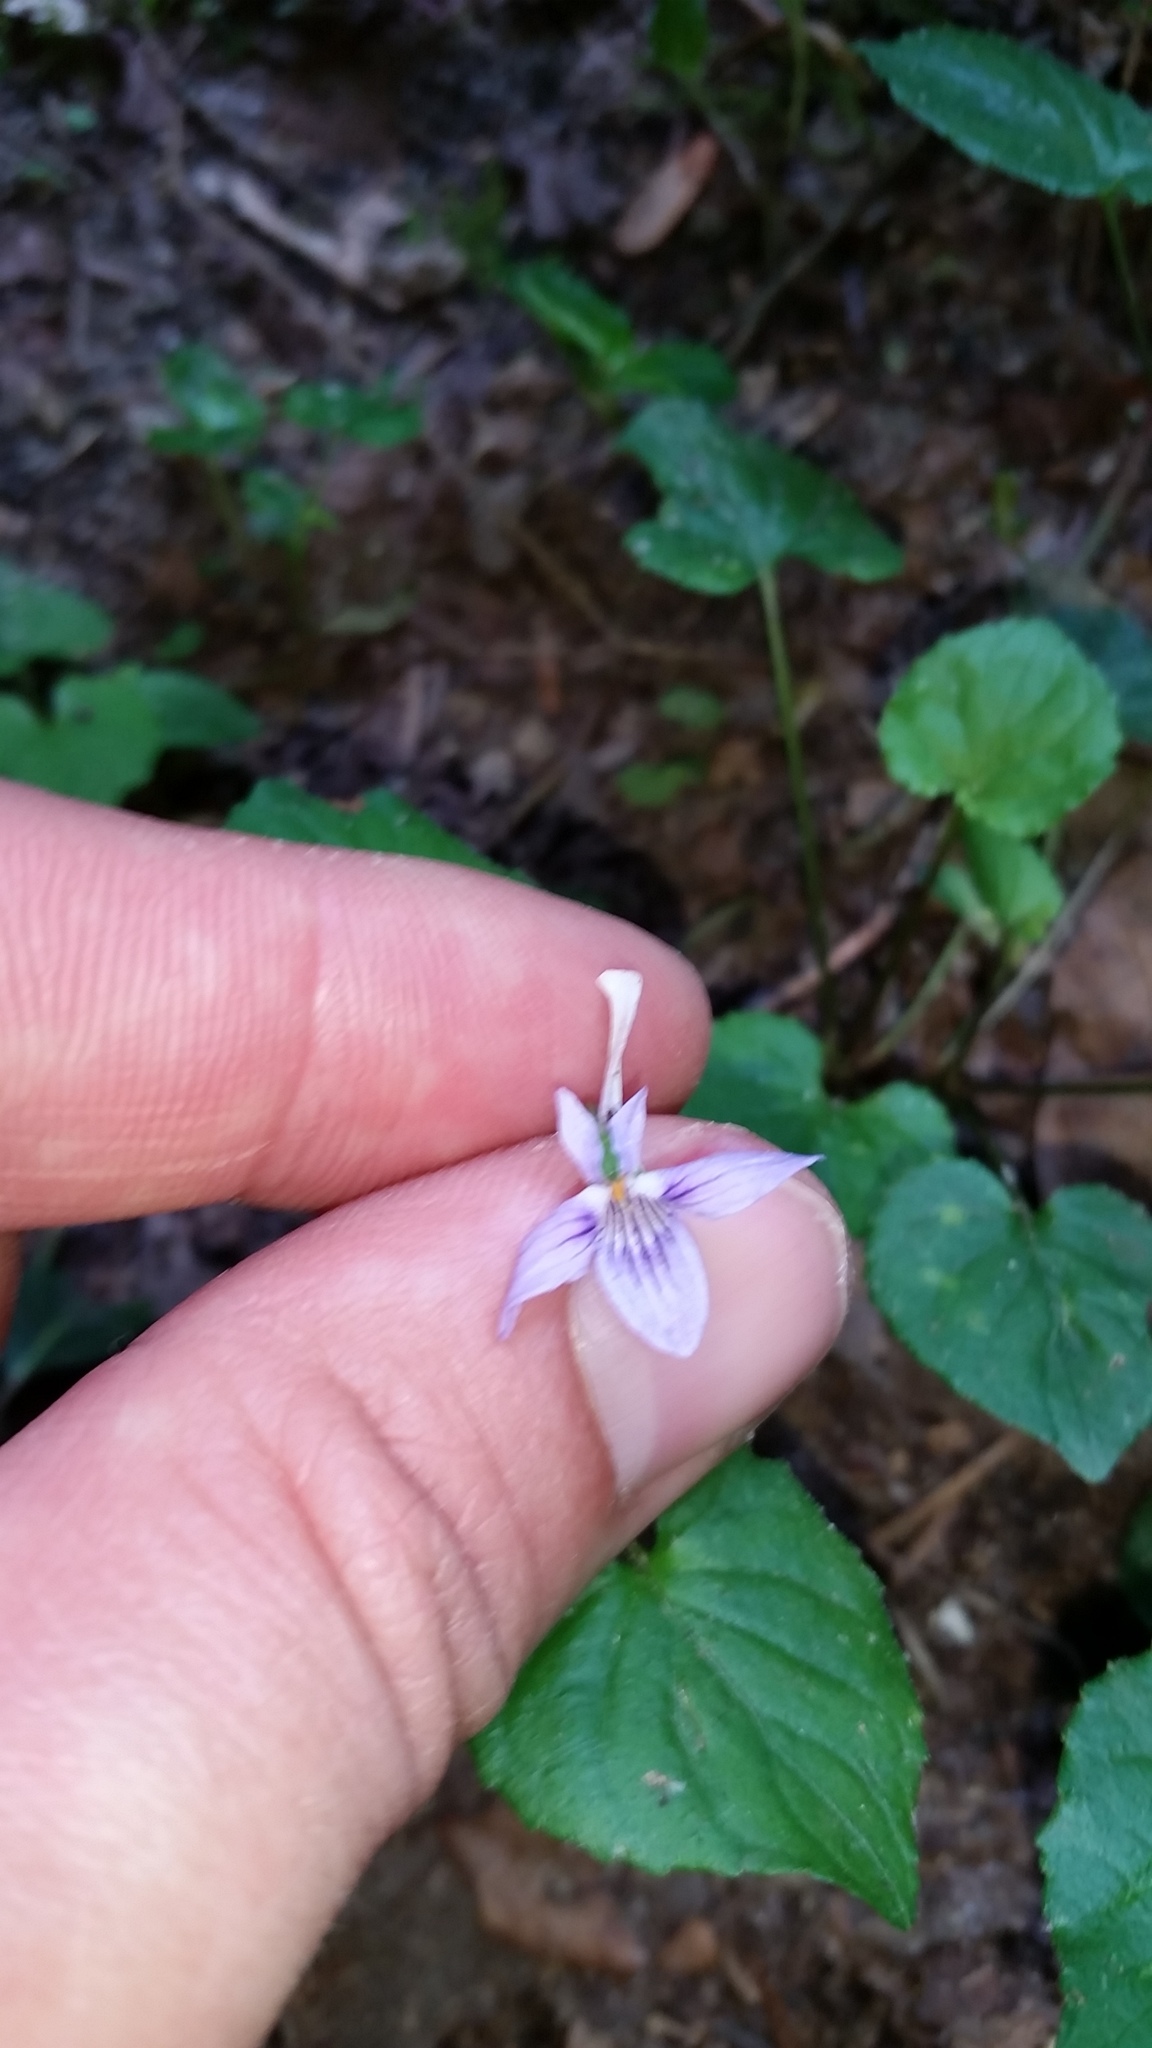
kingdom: Plantae
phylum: Tracheophyta
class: Magnoliopsida
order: Malpighiales
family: Violaceae
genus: Viola
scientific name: Viola rostrata
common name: Long-spur violet
